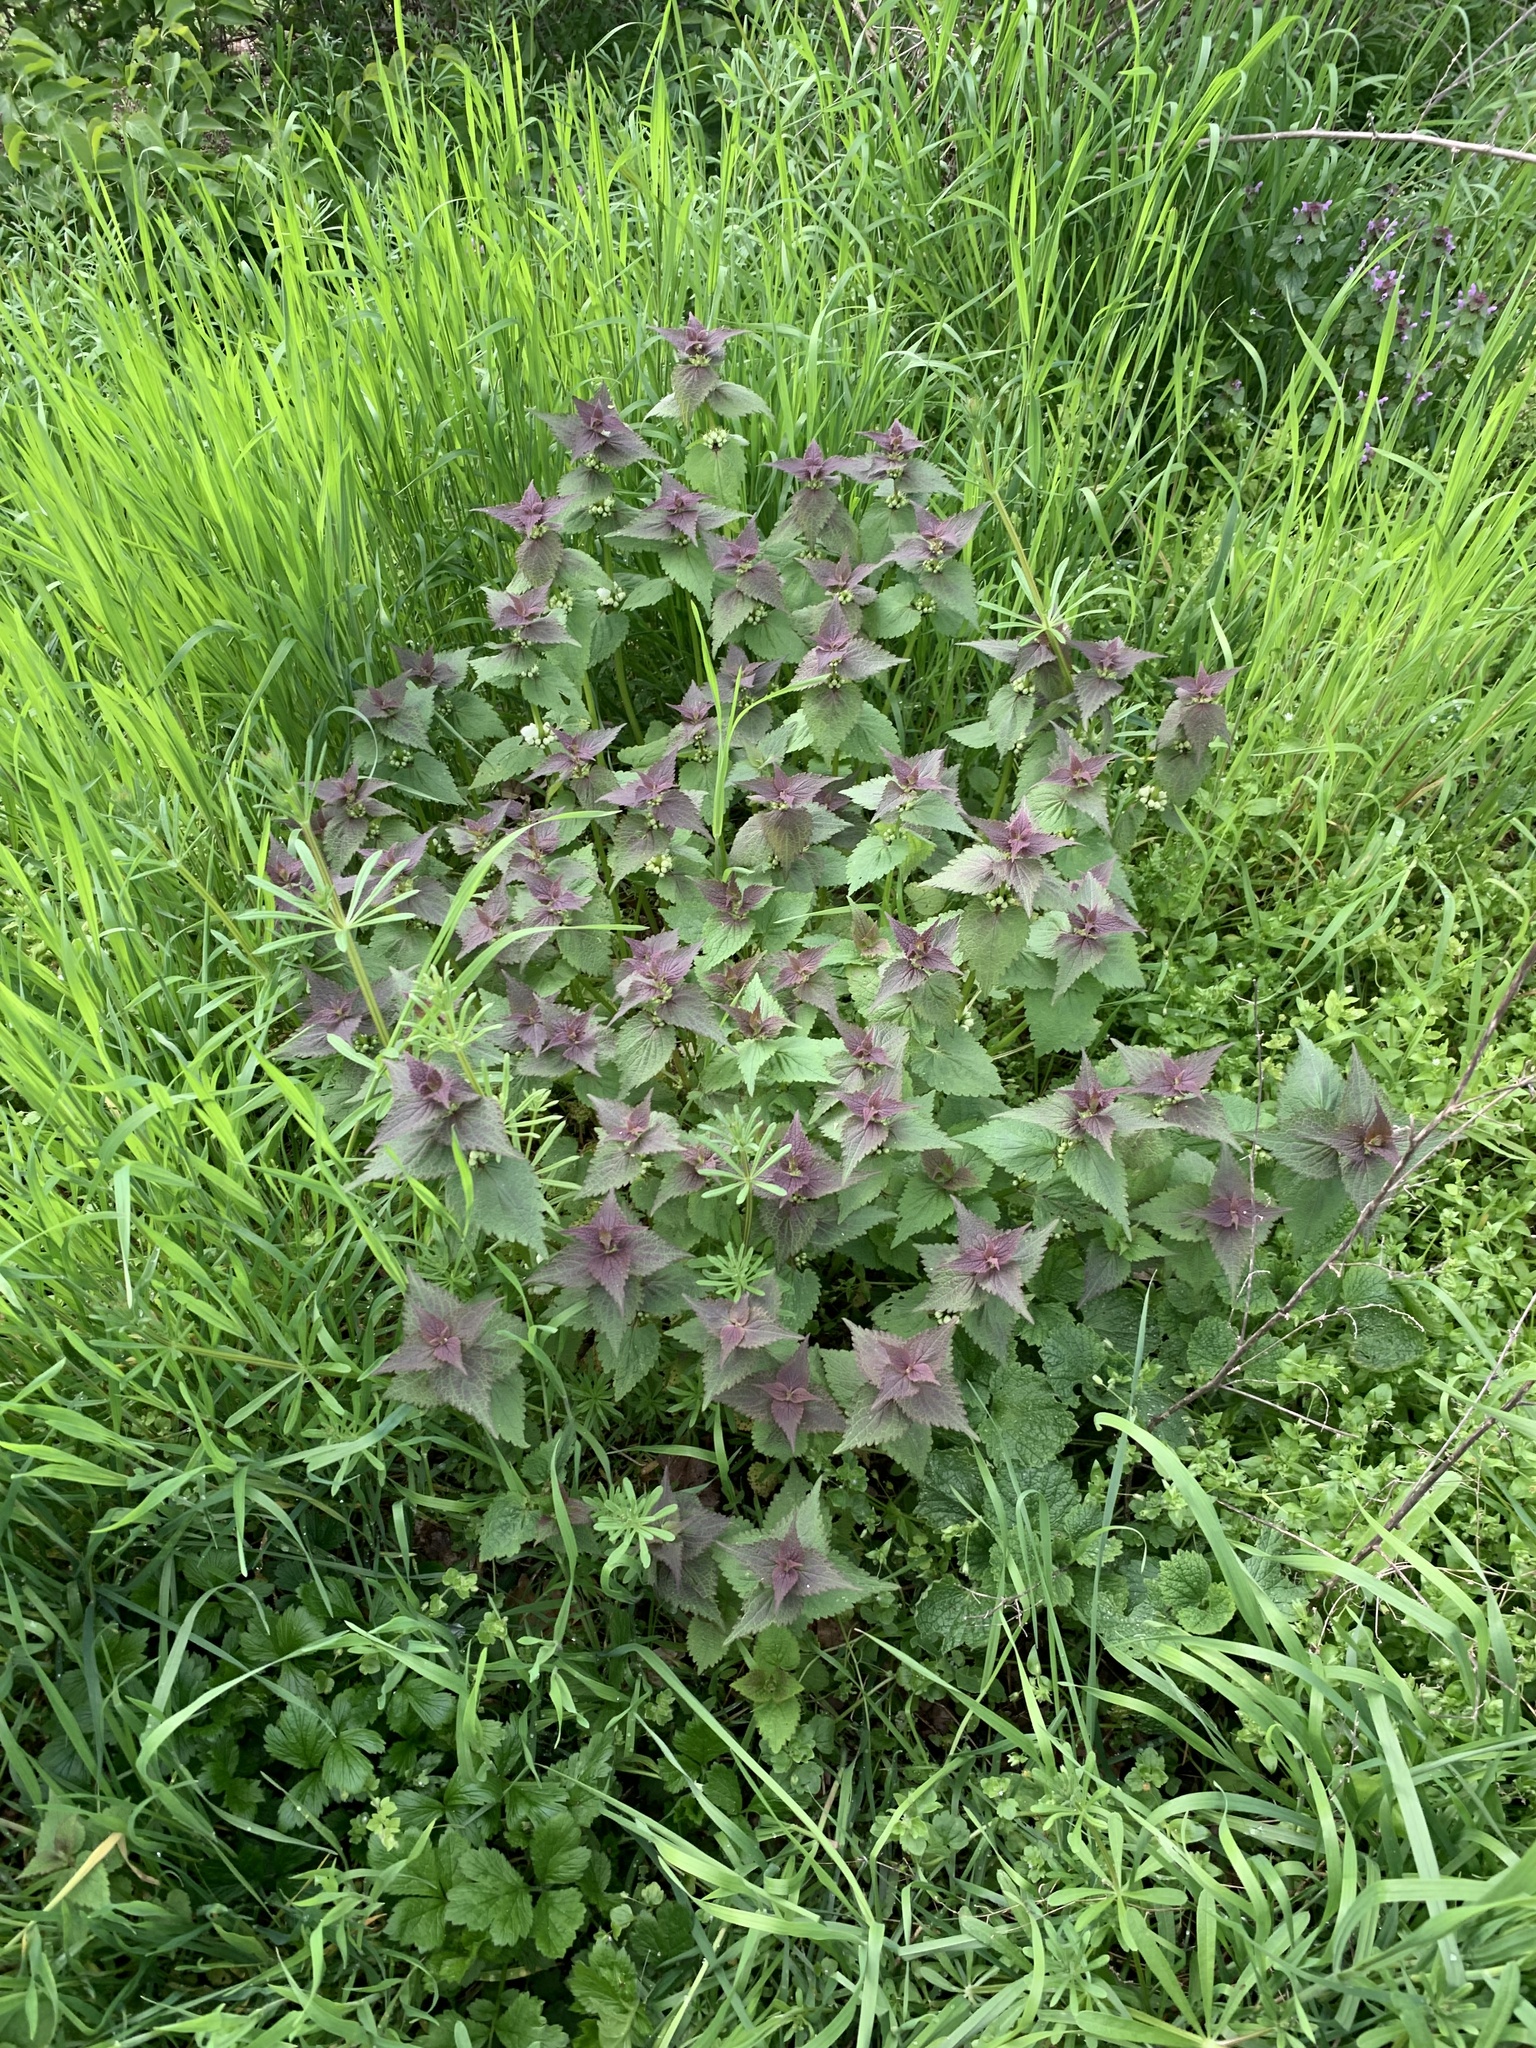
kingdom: Plantae
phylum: Tracheophyta
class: Magnoliopsida
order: Lamiales
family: Lamiaceae
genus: Lamium
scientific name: Lamium album
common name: White dead-nettle
